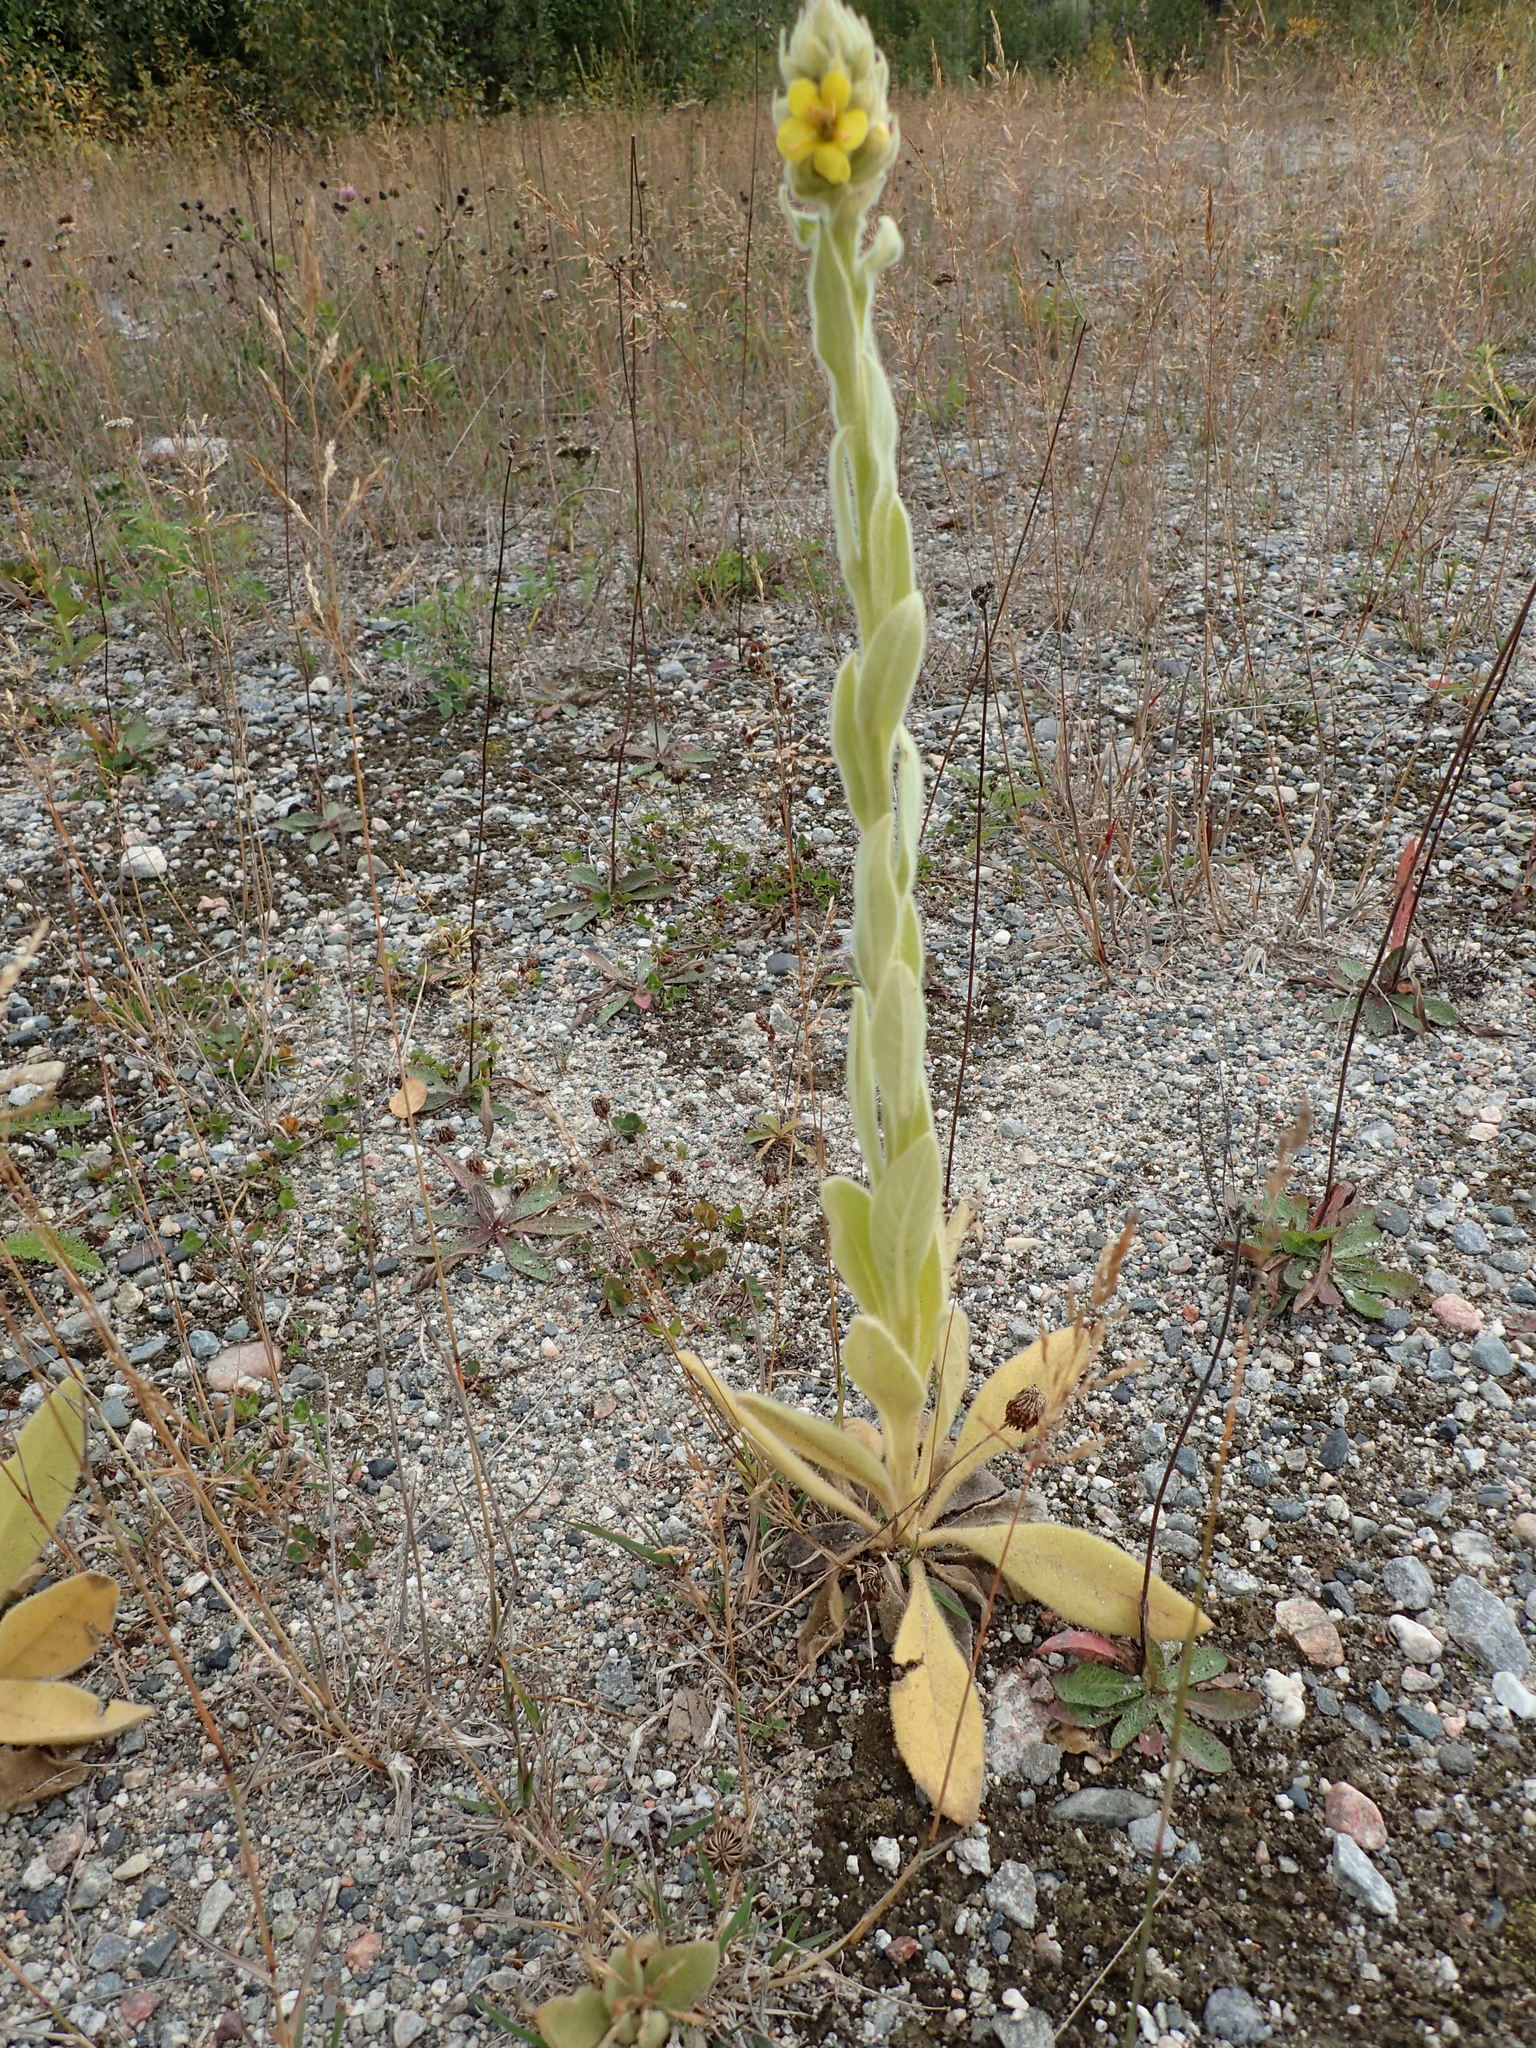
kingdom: Plantae
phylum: Tracheophyta
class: Magnoliopsida
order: Lamiales
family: Scrophulariaceae
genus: Verbascum
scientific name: Verbascum thapsus
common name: Common mullein
